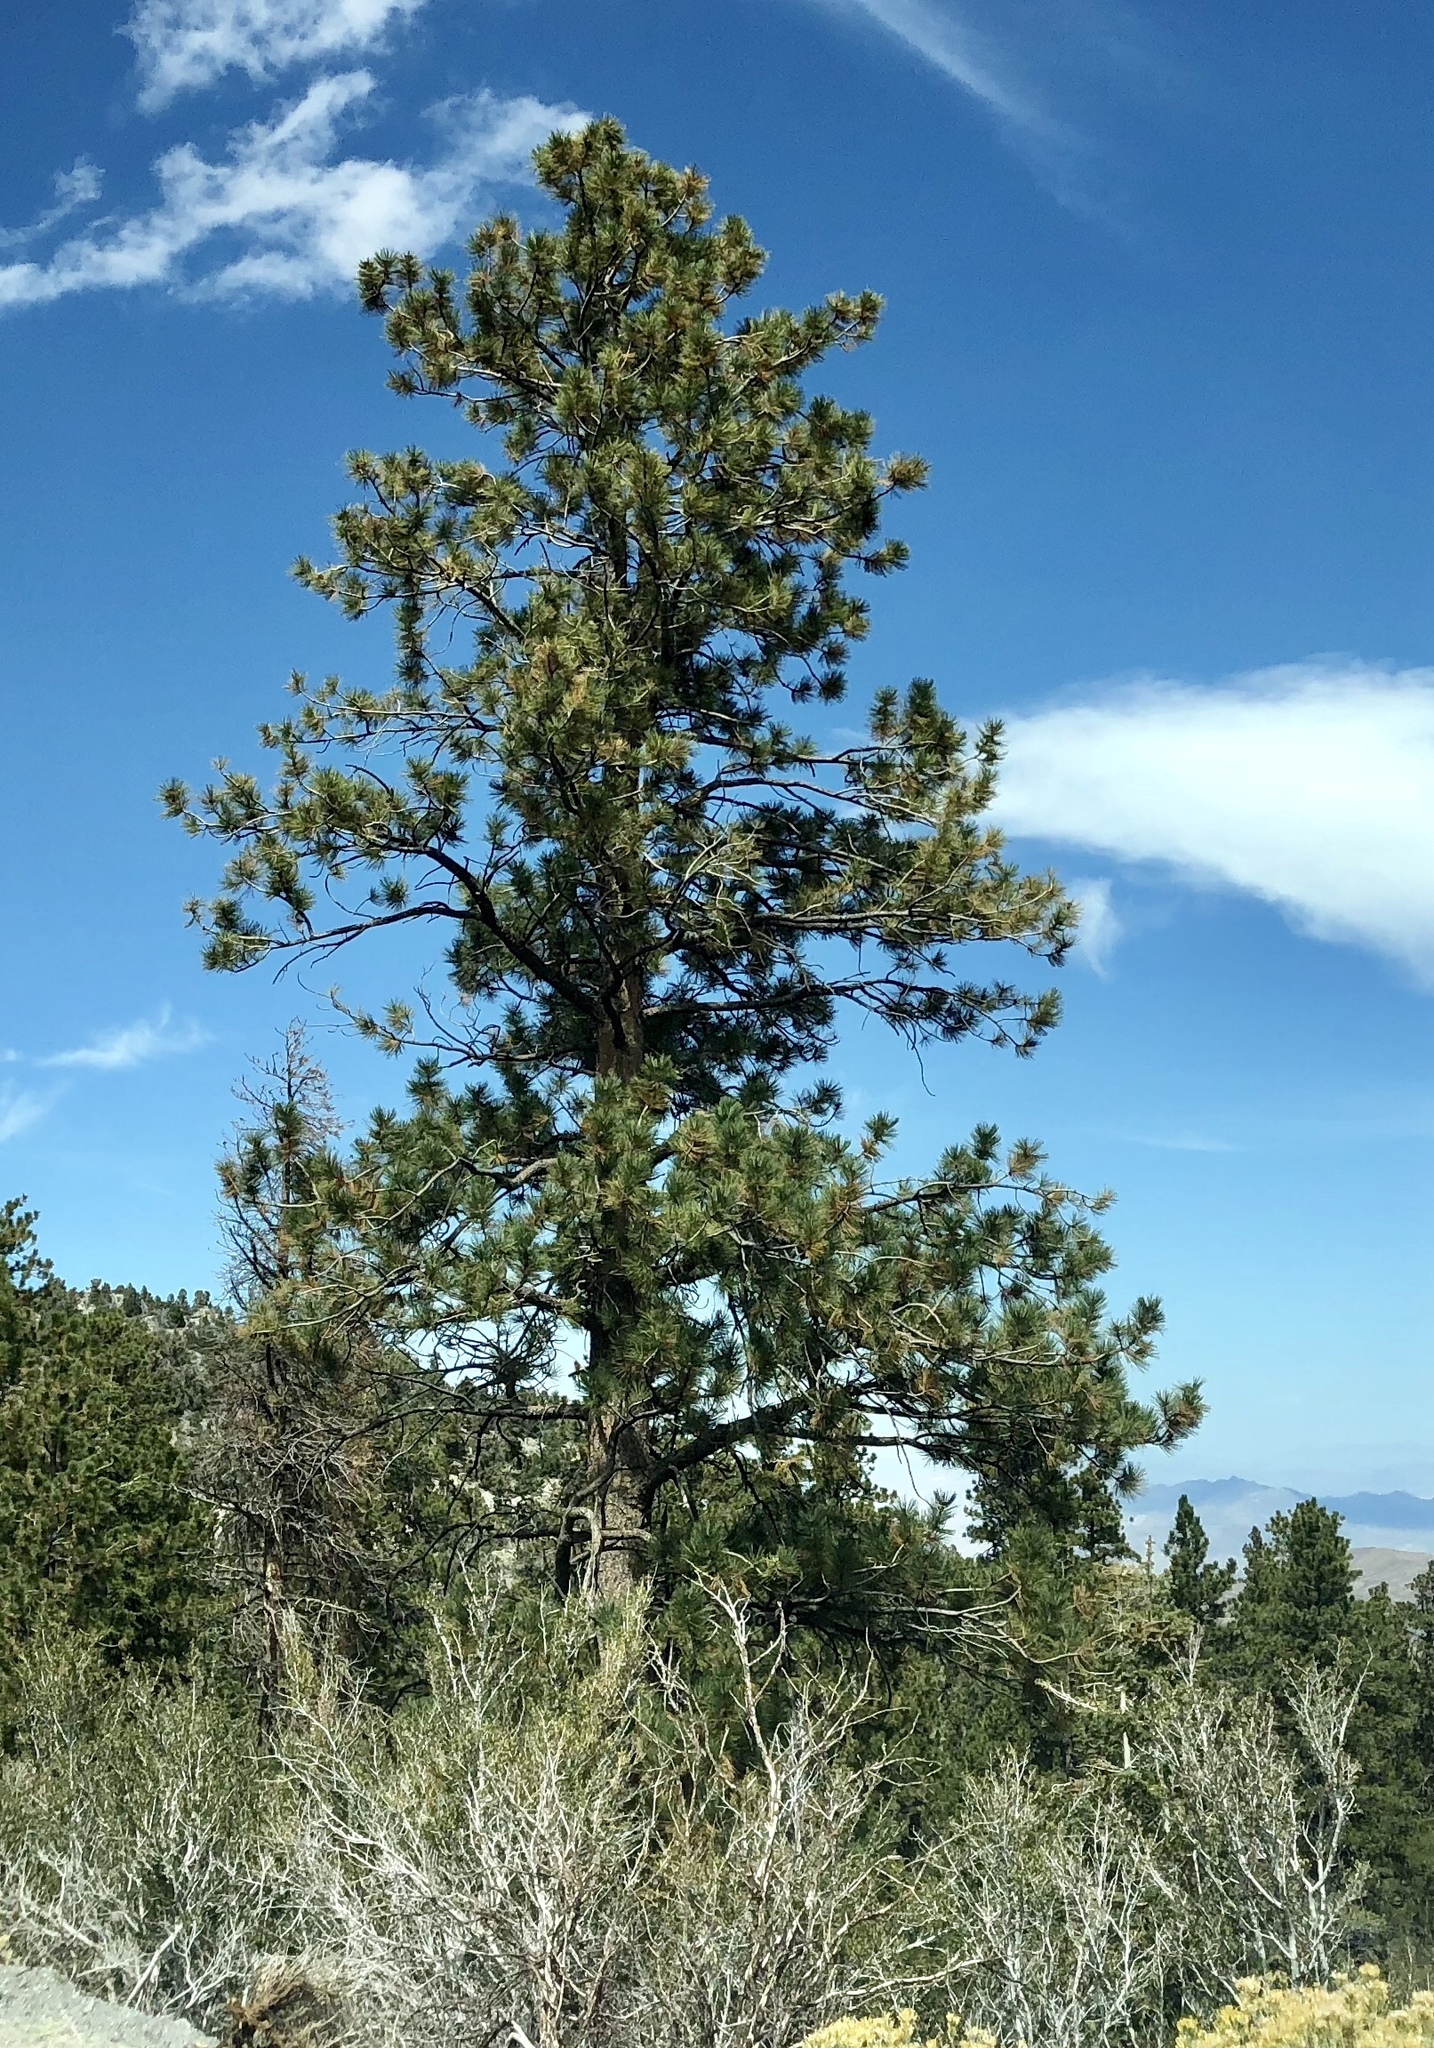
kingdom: Plantae
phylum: Tracheophyta
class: Pinopsida
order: Pinales
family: Pinaceae
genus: Pinus
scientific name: Pinus ponderosa
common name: Western yellow-pine
